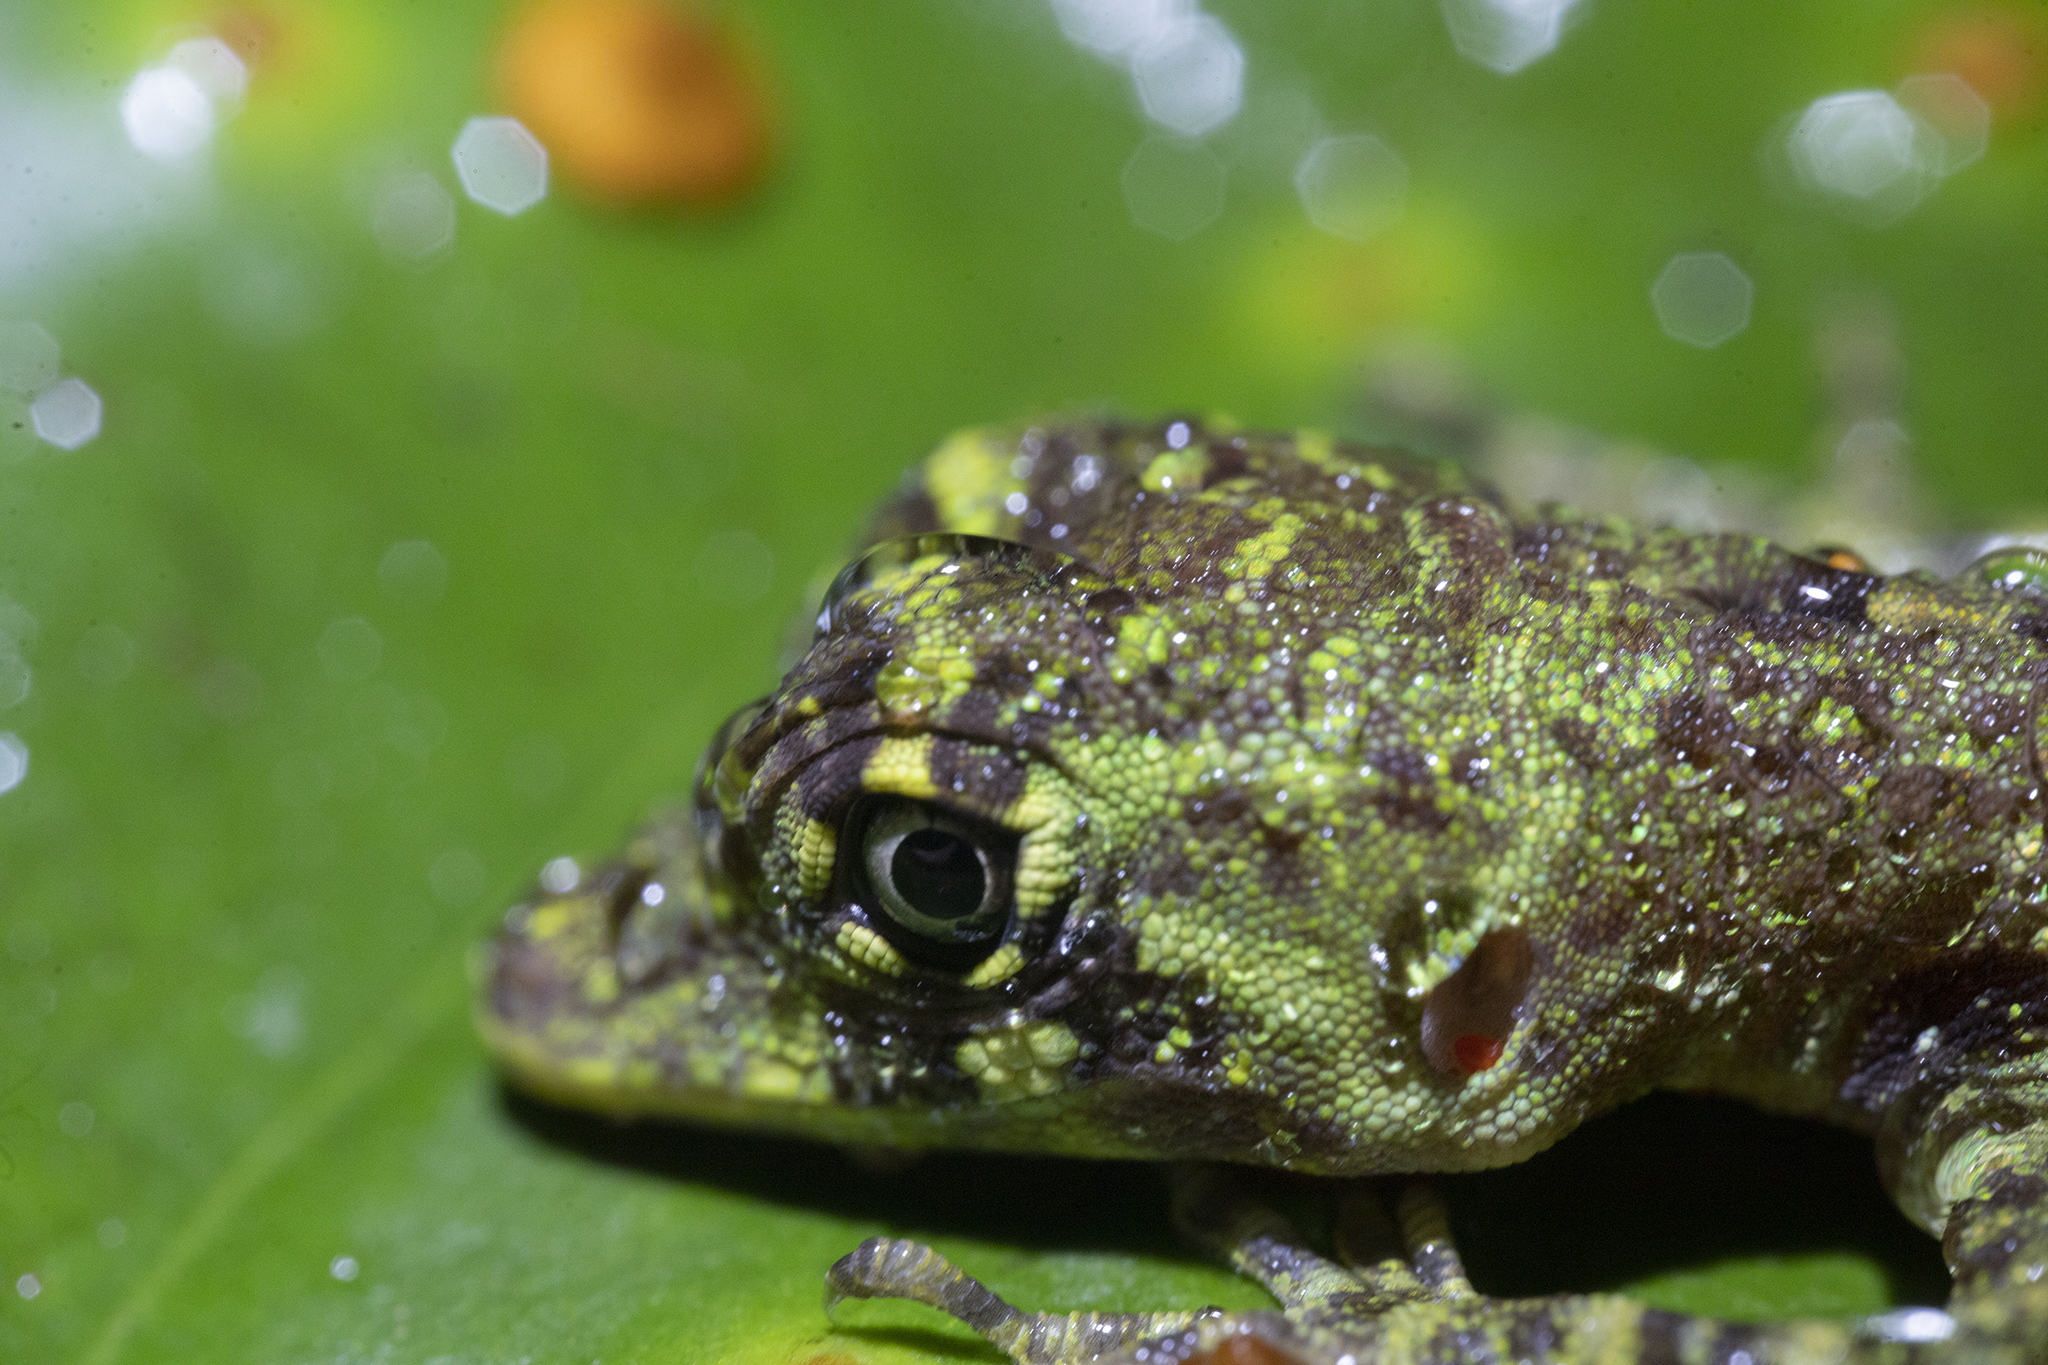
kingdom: Animalia
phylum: Chordata
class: Squamata
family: Dactyloidae
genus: Anolis
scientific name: Anolis latifrons
